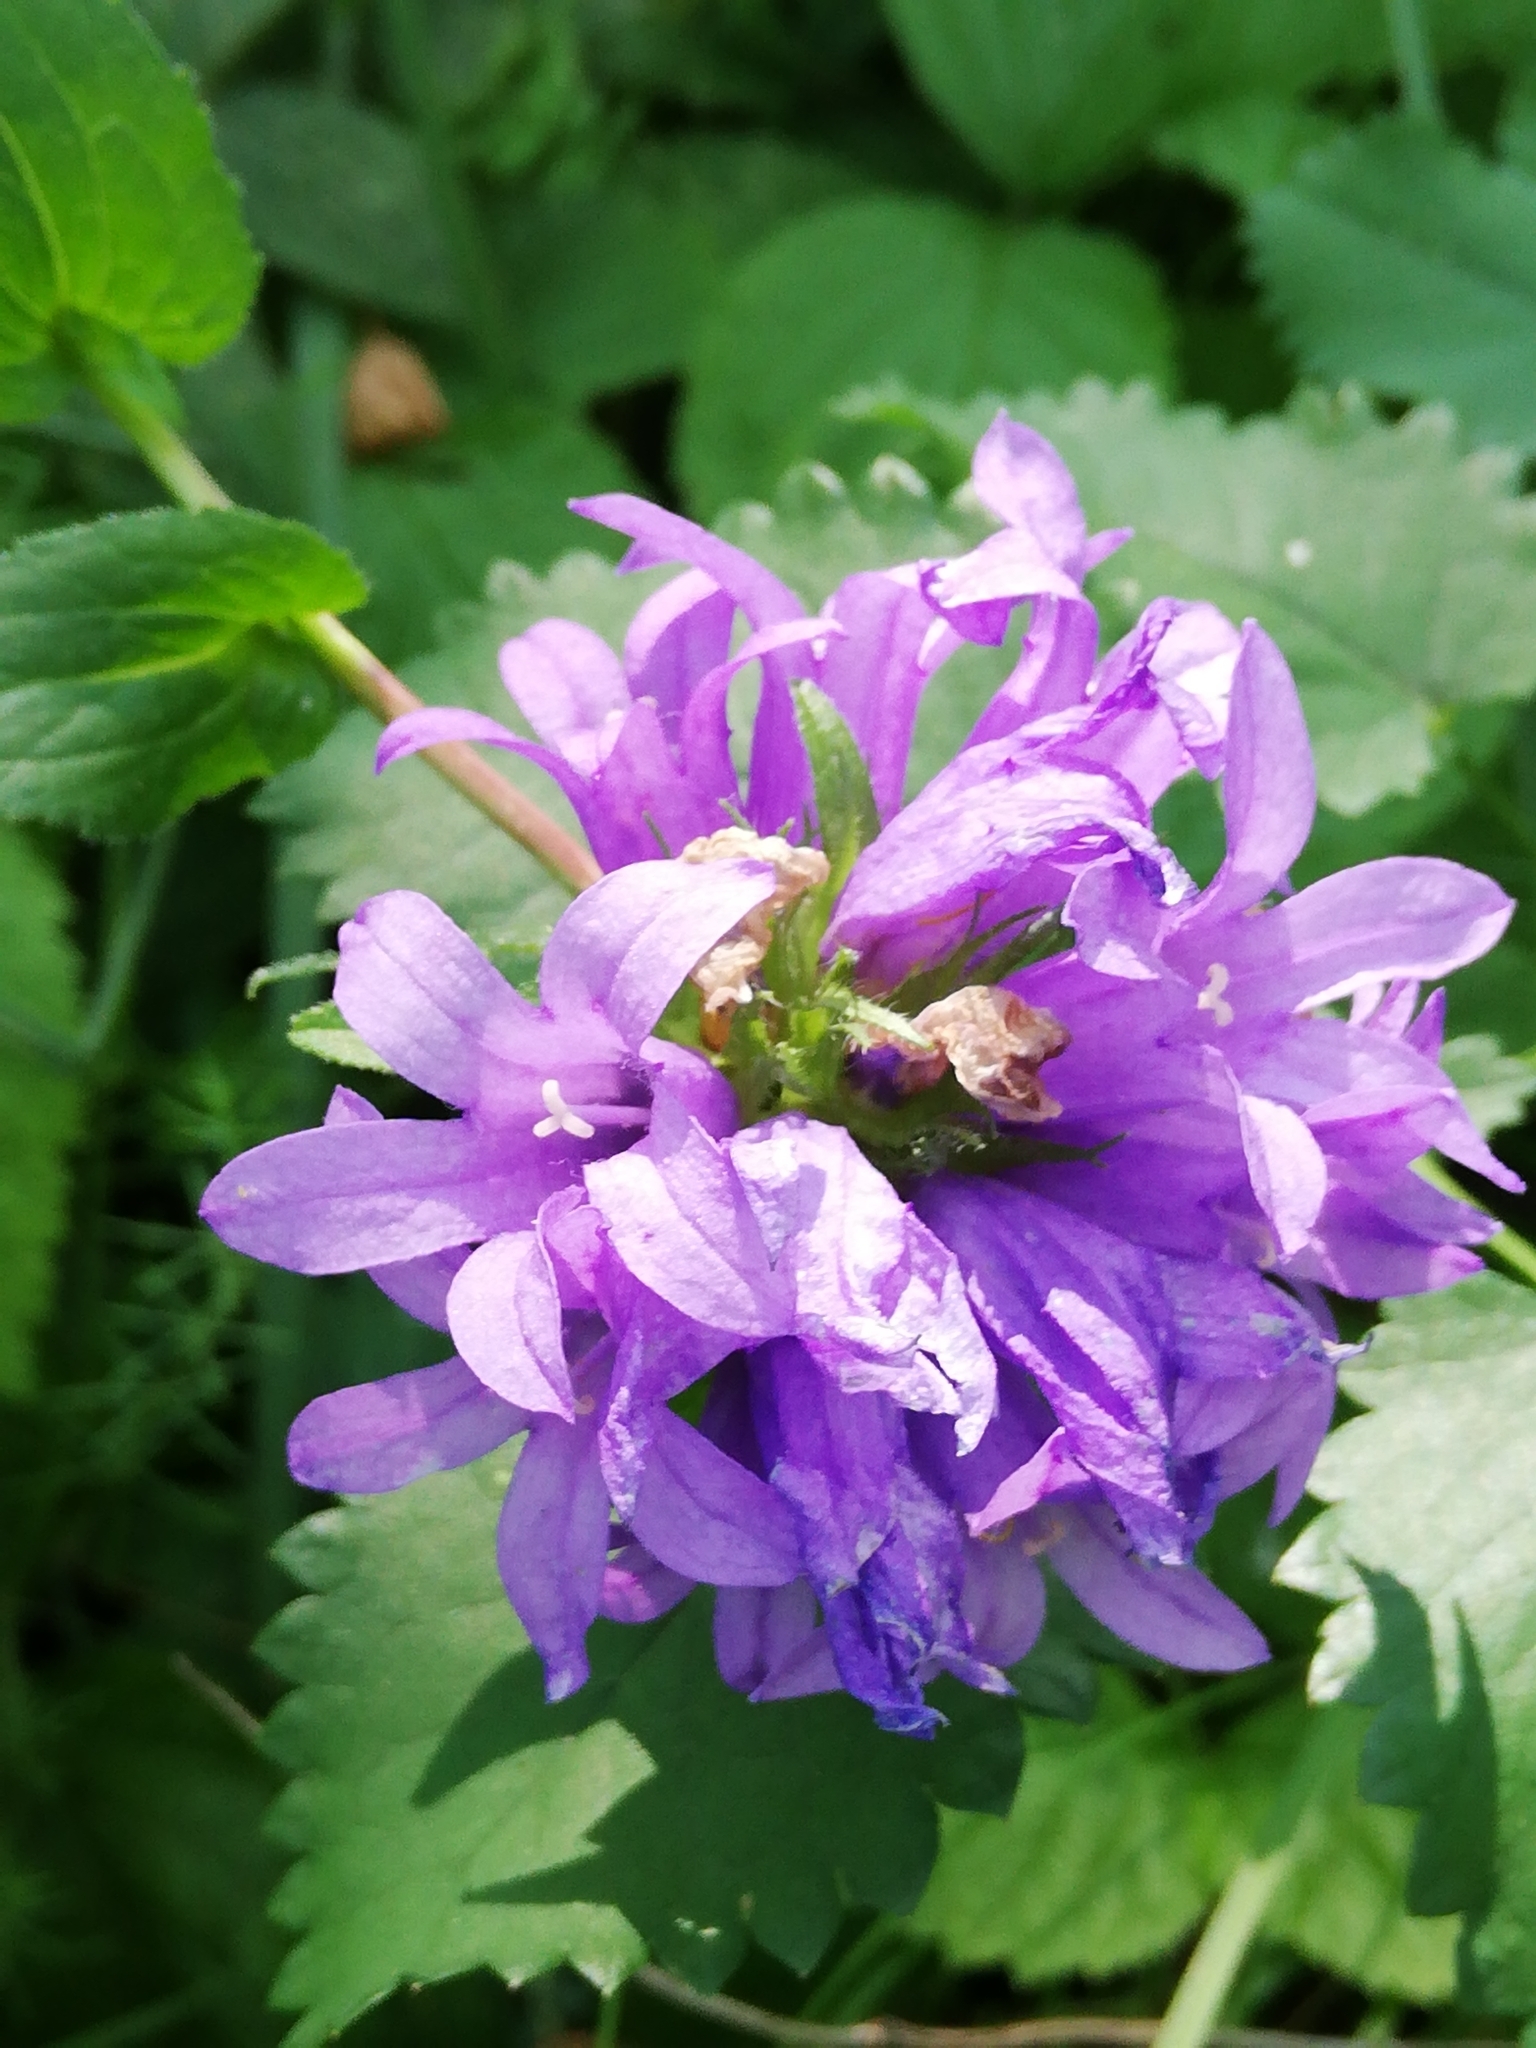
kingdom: Plantae
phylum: Tracheophyta
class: Magnoliopsida
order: Asterales
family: Campanulaceae
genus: Campanula
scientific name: Campanula glomerata
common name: Clustered bellflower
